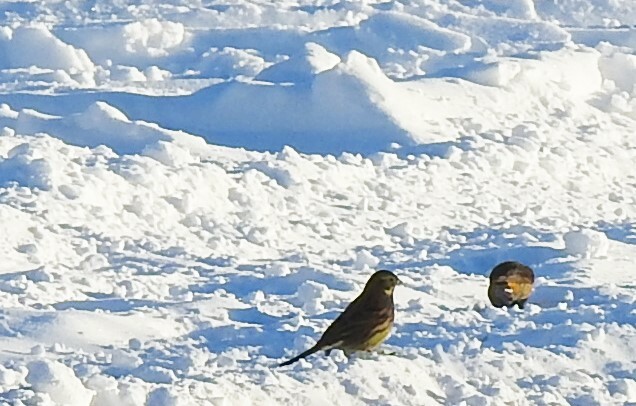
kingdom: Animalia
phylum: Chordata
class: Aves
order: Passeriformes
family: Emberizidae
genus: Emberiza
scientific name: Emberiza citrinella
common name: Yellowhammer
